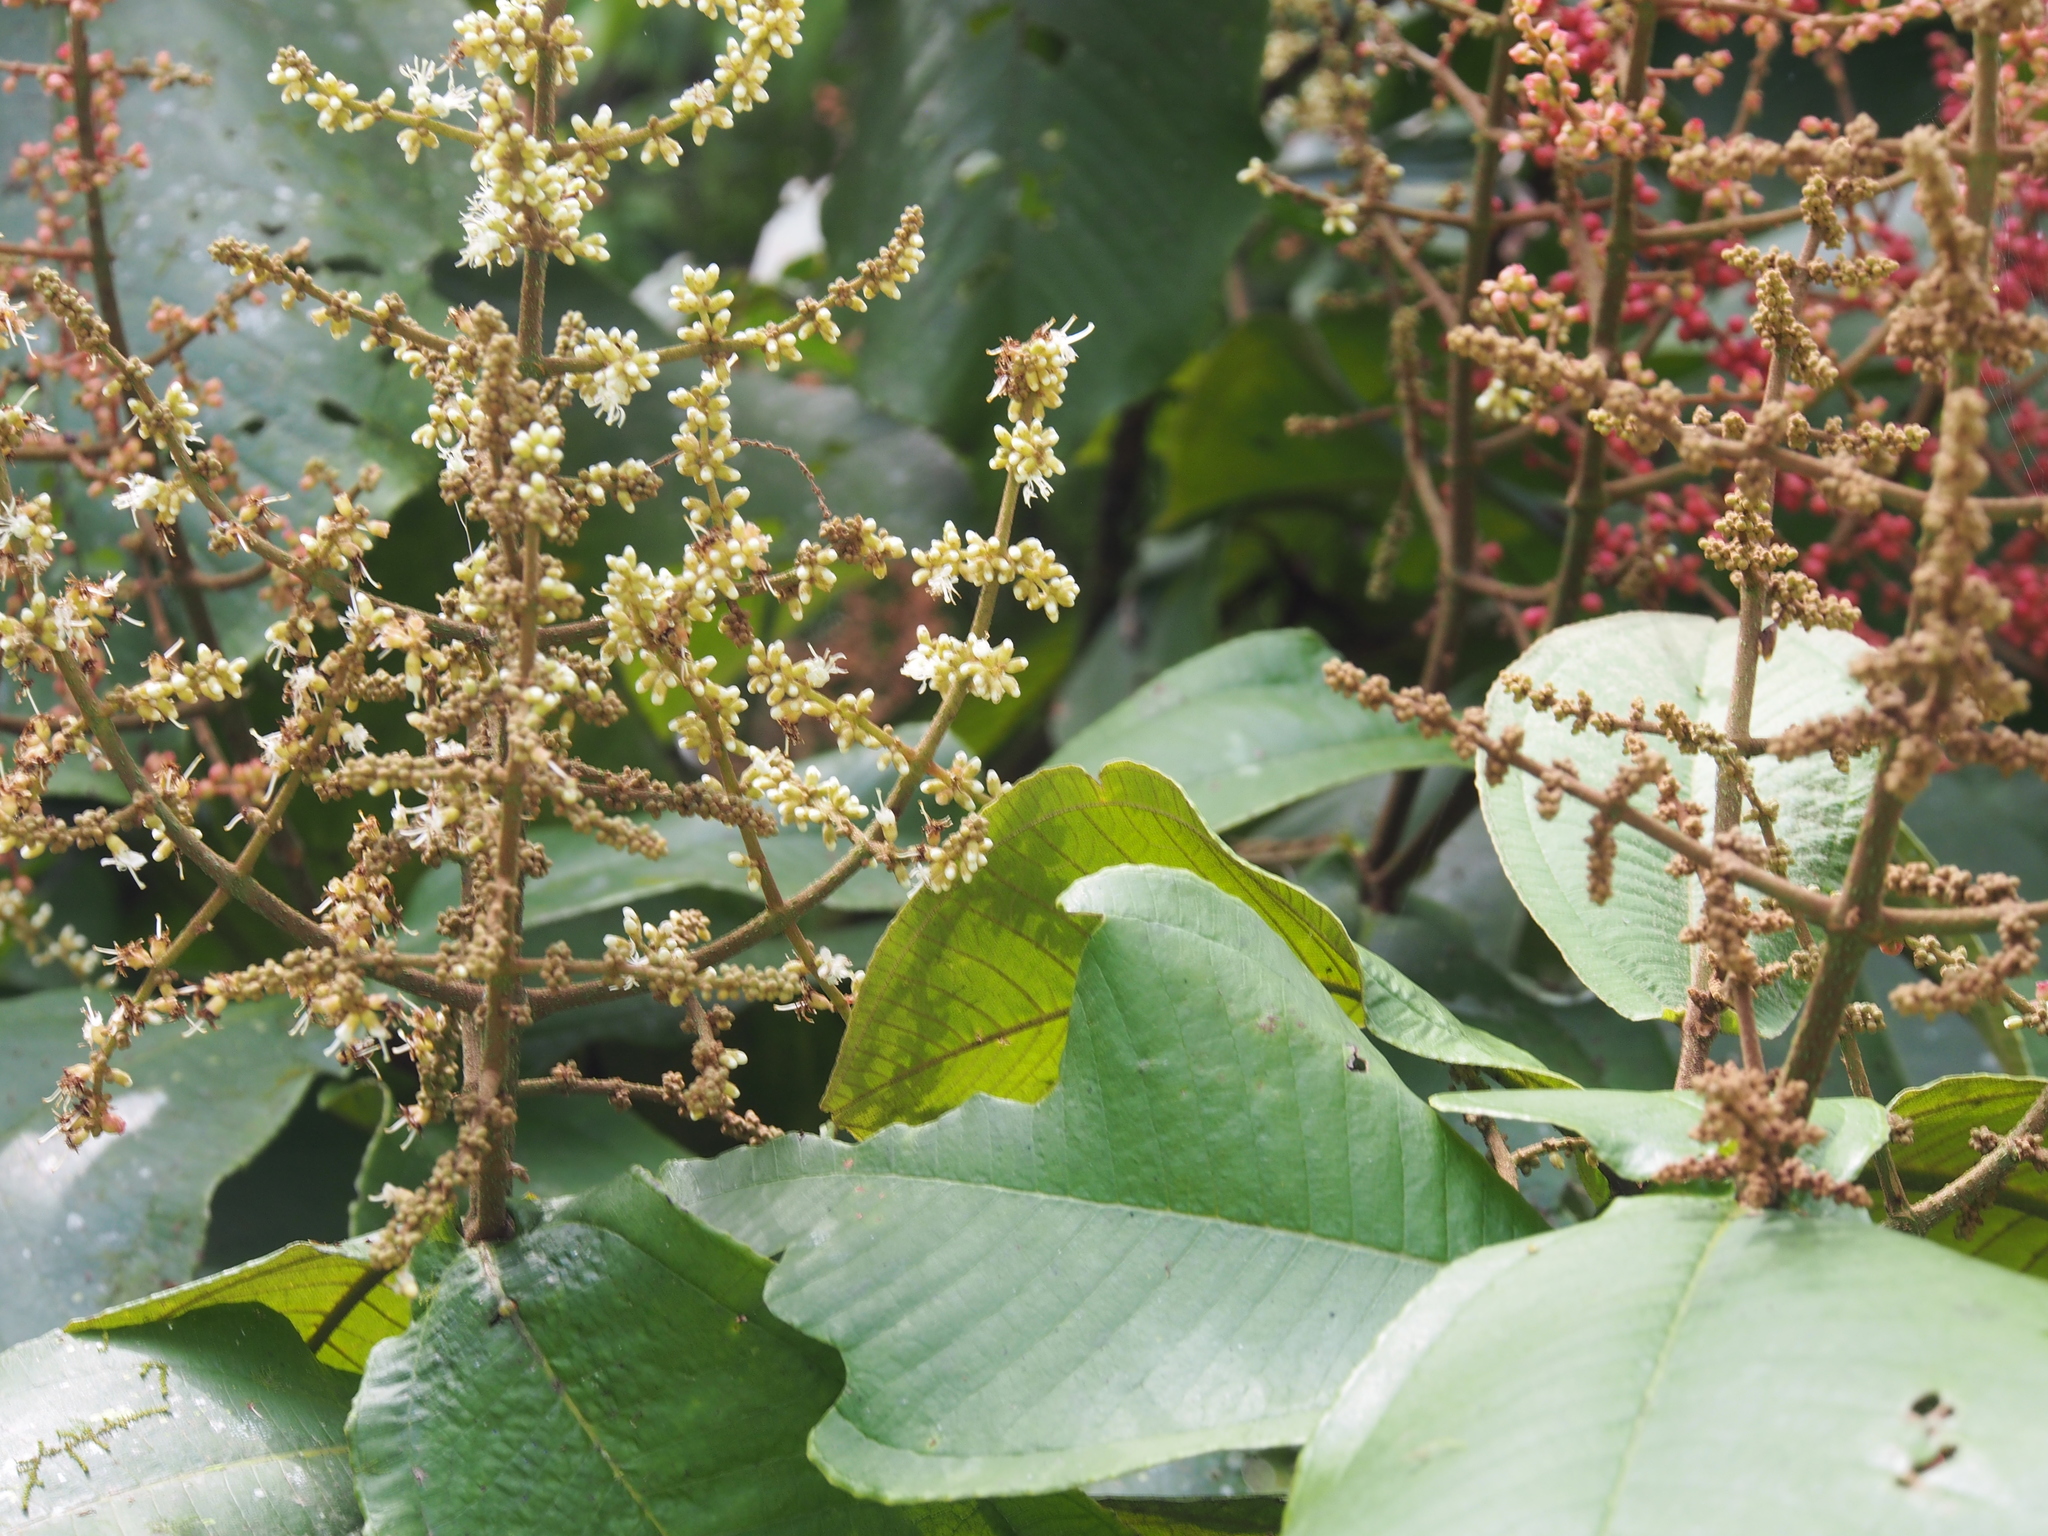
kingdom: Plantae
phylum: Tracheophyta
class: Magnoliopsida
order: Myrtales
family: Melastomataceae
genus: Miconia
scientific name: Miconia impetiolaris
